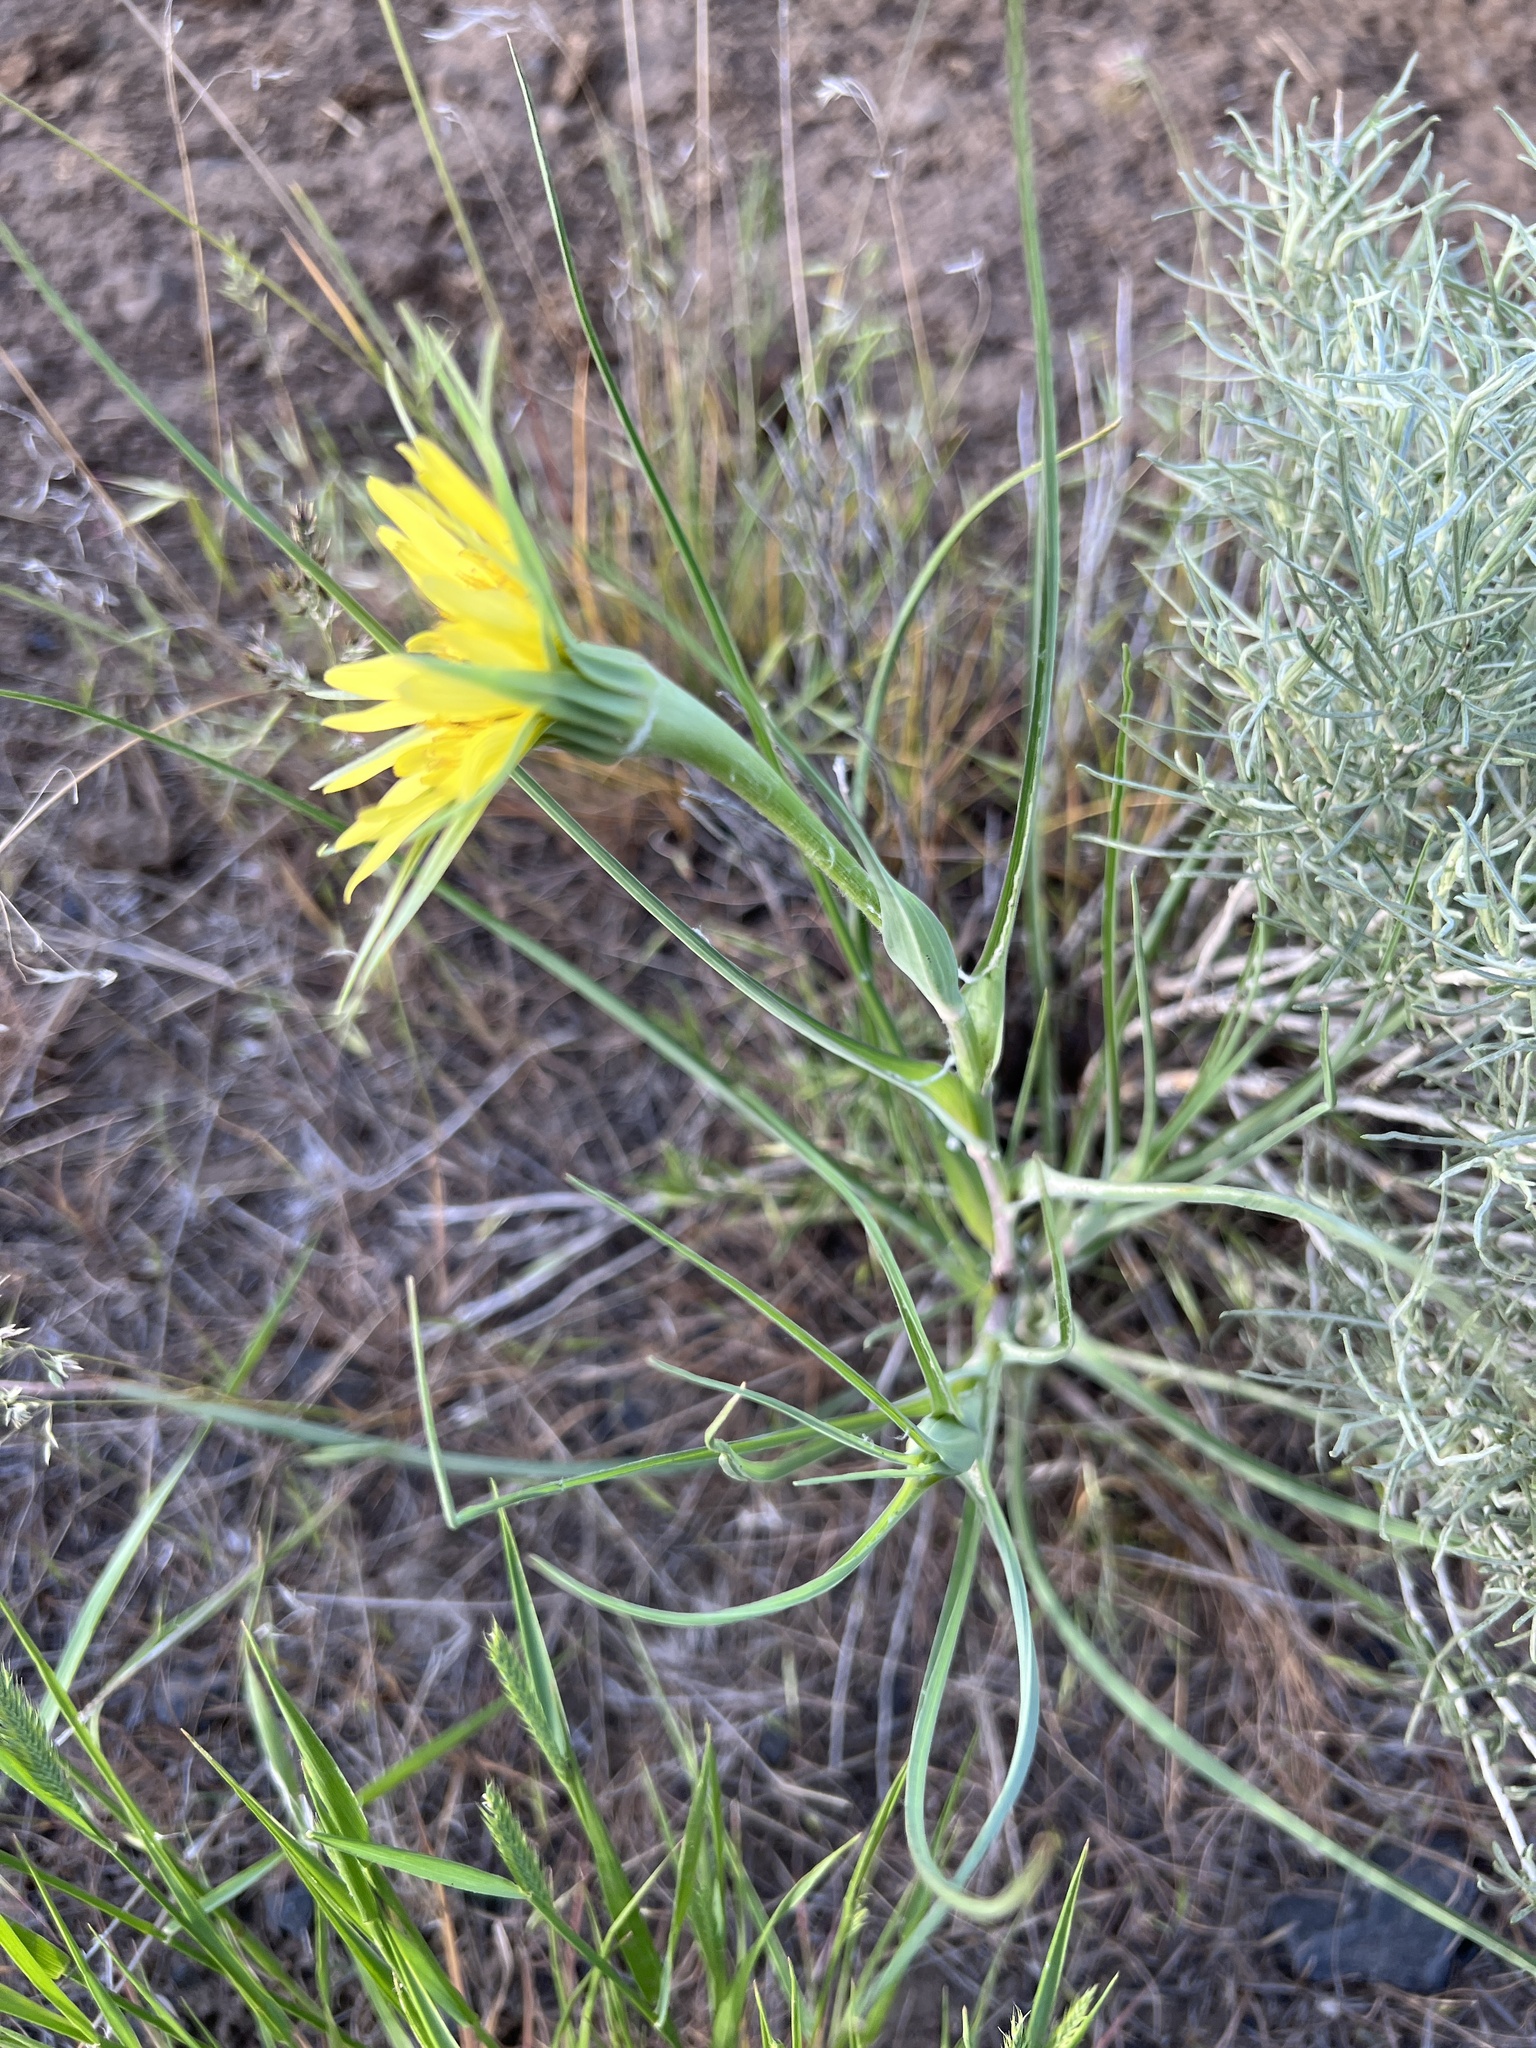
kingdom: Plantae
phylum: Tracheophyta
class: Magnoliopsida
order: Asterales
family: Asteraceae
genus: Tragopogon
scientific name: Tragopogon dubius
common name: Yellow salsify
